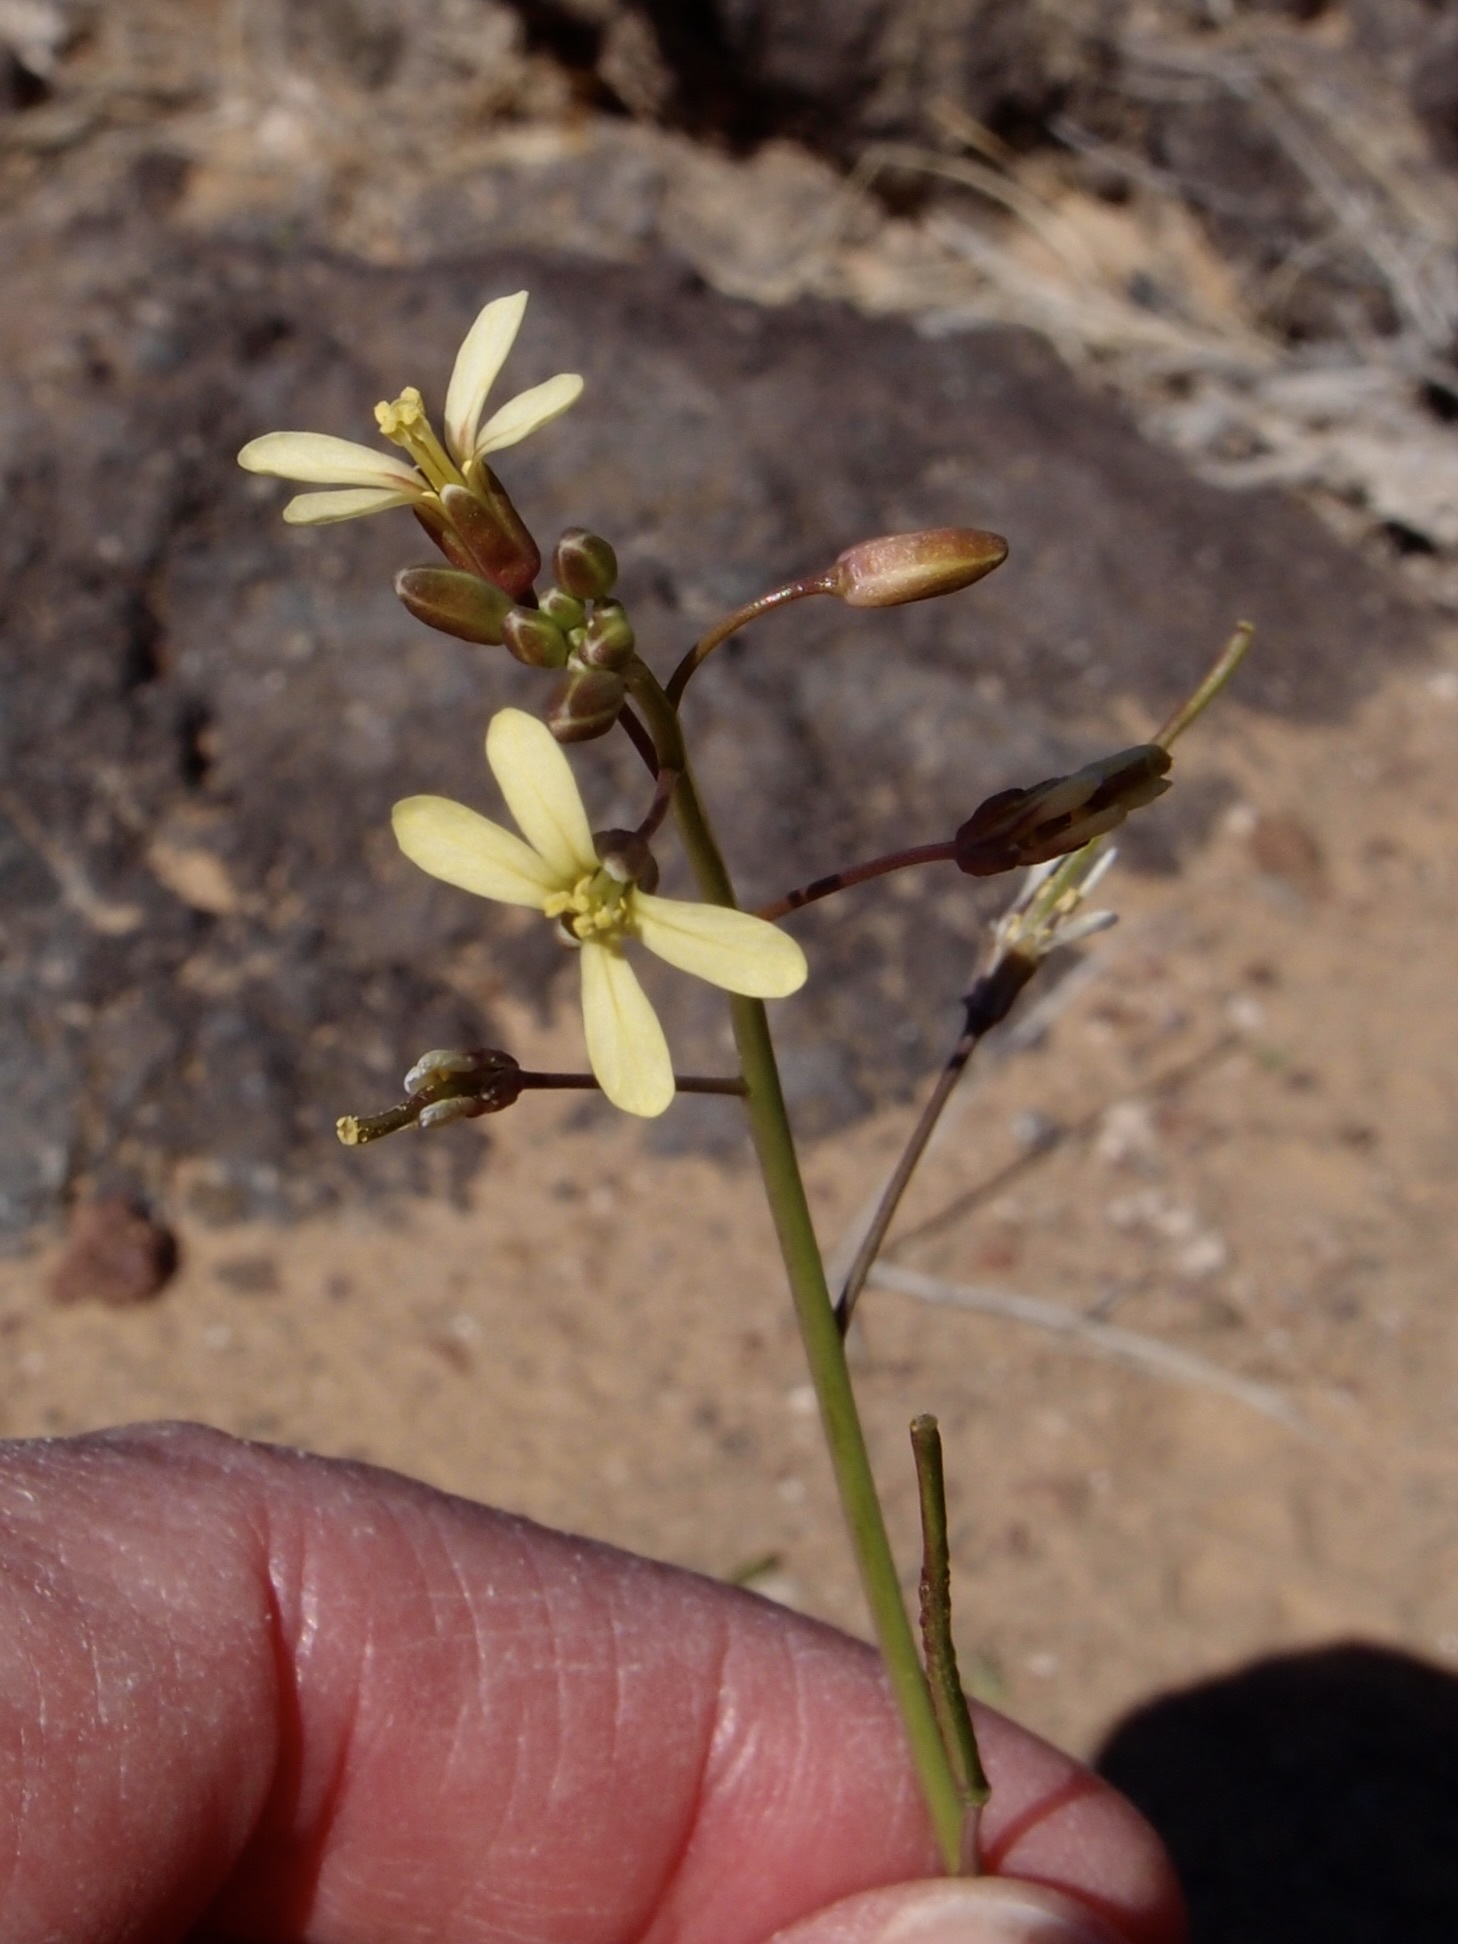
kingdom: Plantae
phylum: Tracheophyta
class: Magnoliopsida
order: Brassicales
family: Brassicaceae
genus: Brassica
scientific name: Brassica tournefortii
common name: Pale cabbage
